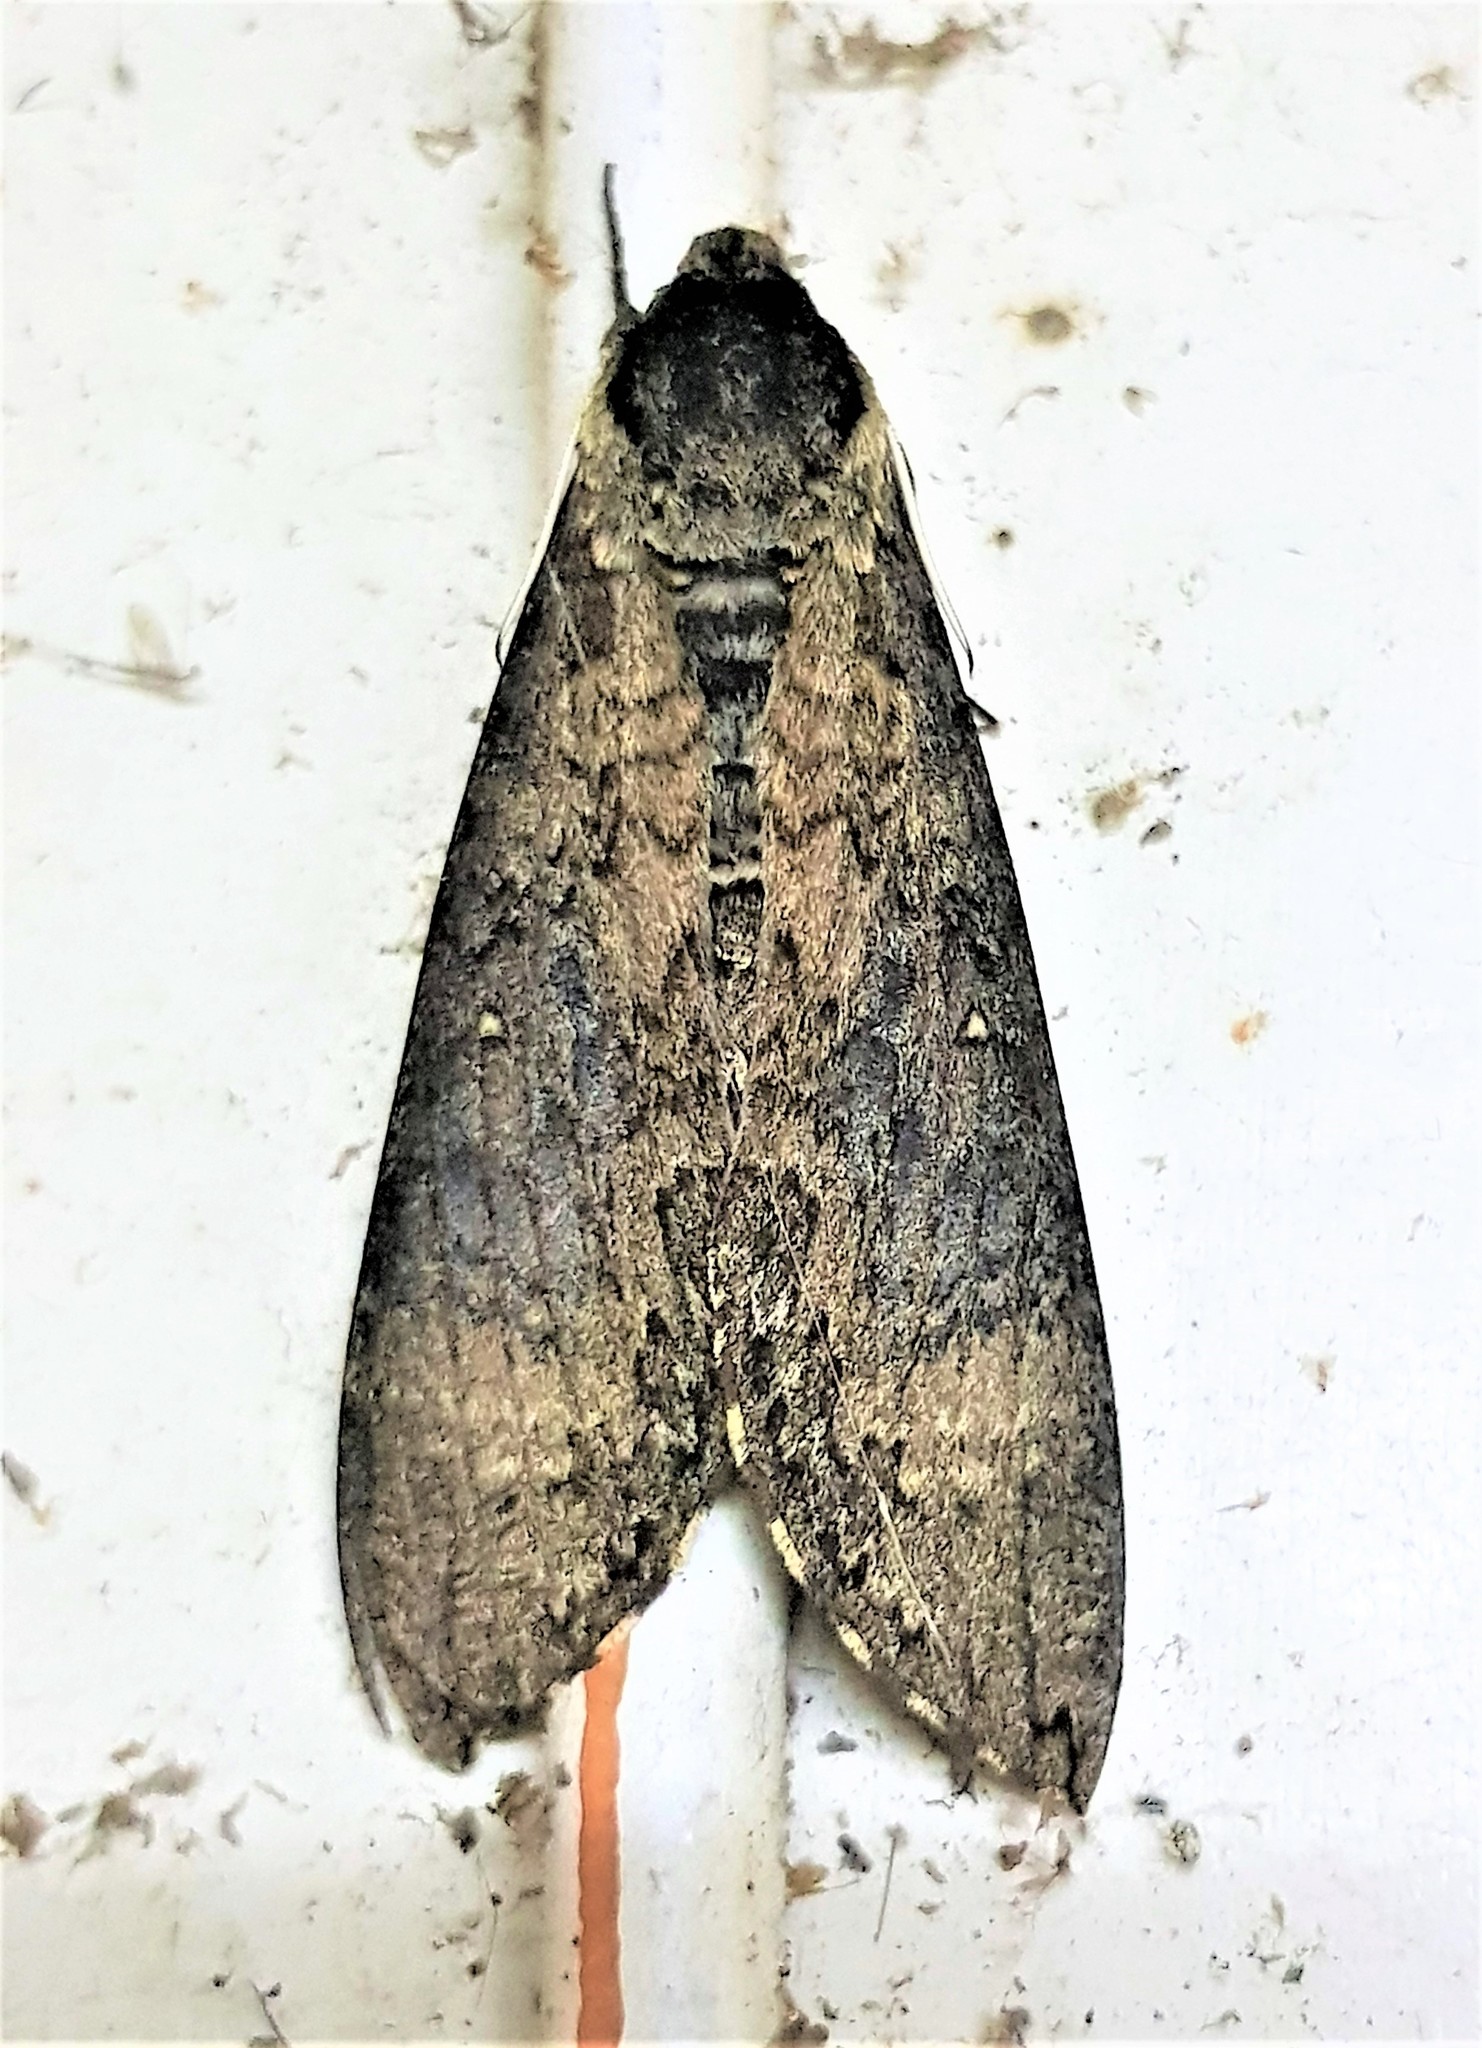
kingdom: Animalia
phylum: Arthropoda
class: Insecta
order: Lepidoptera
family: Sphingidae
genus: Manduca
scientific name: Manduca pellenia
